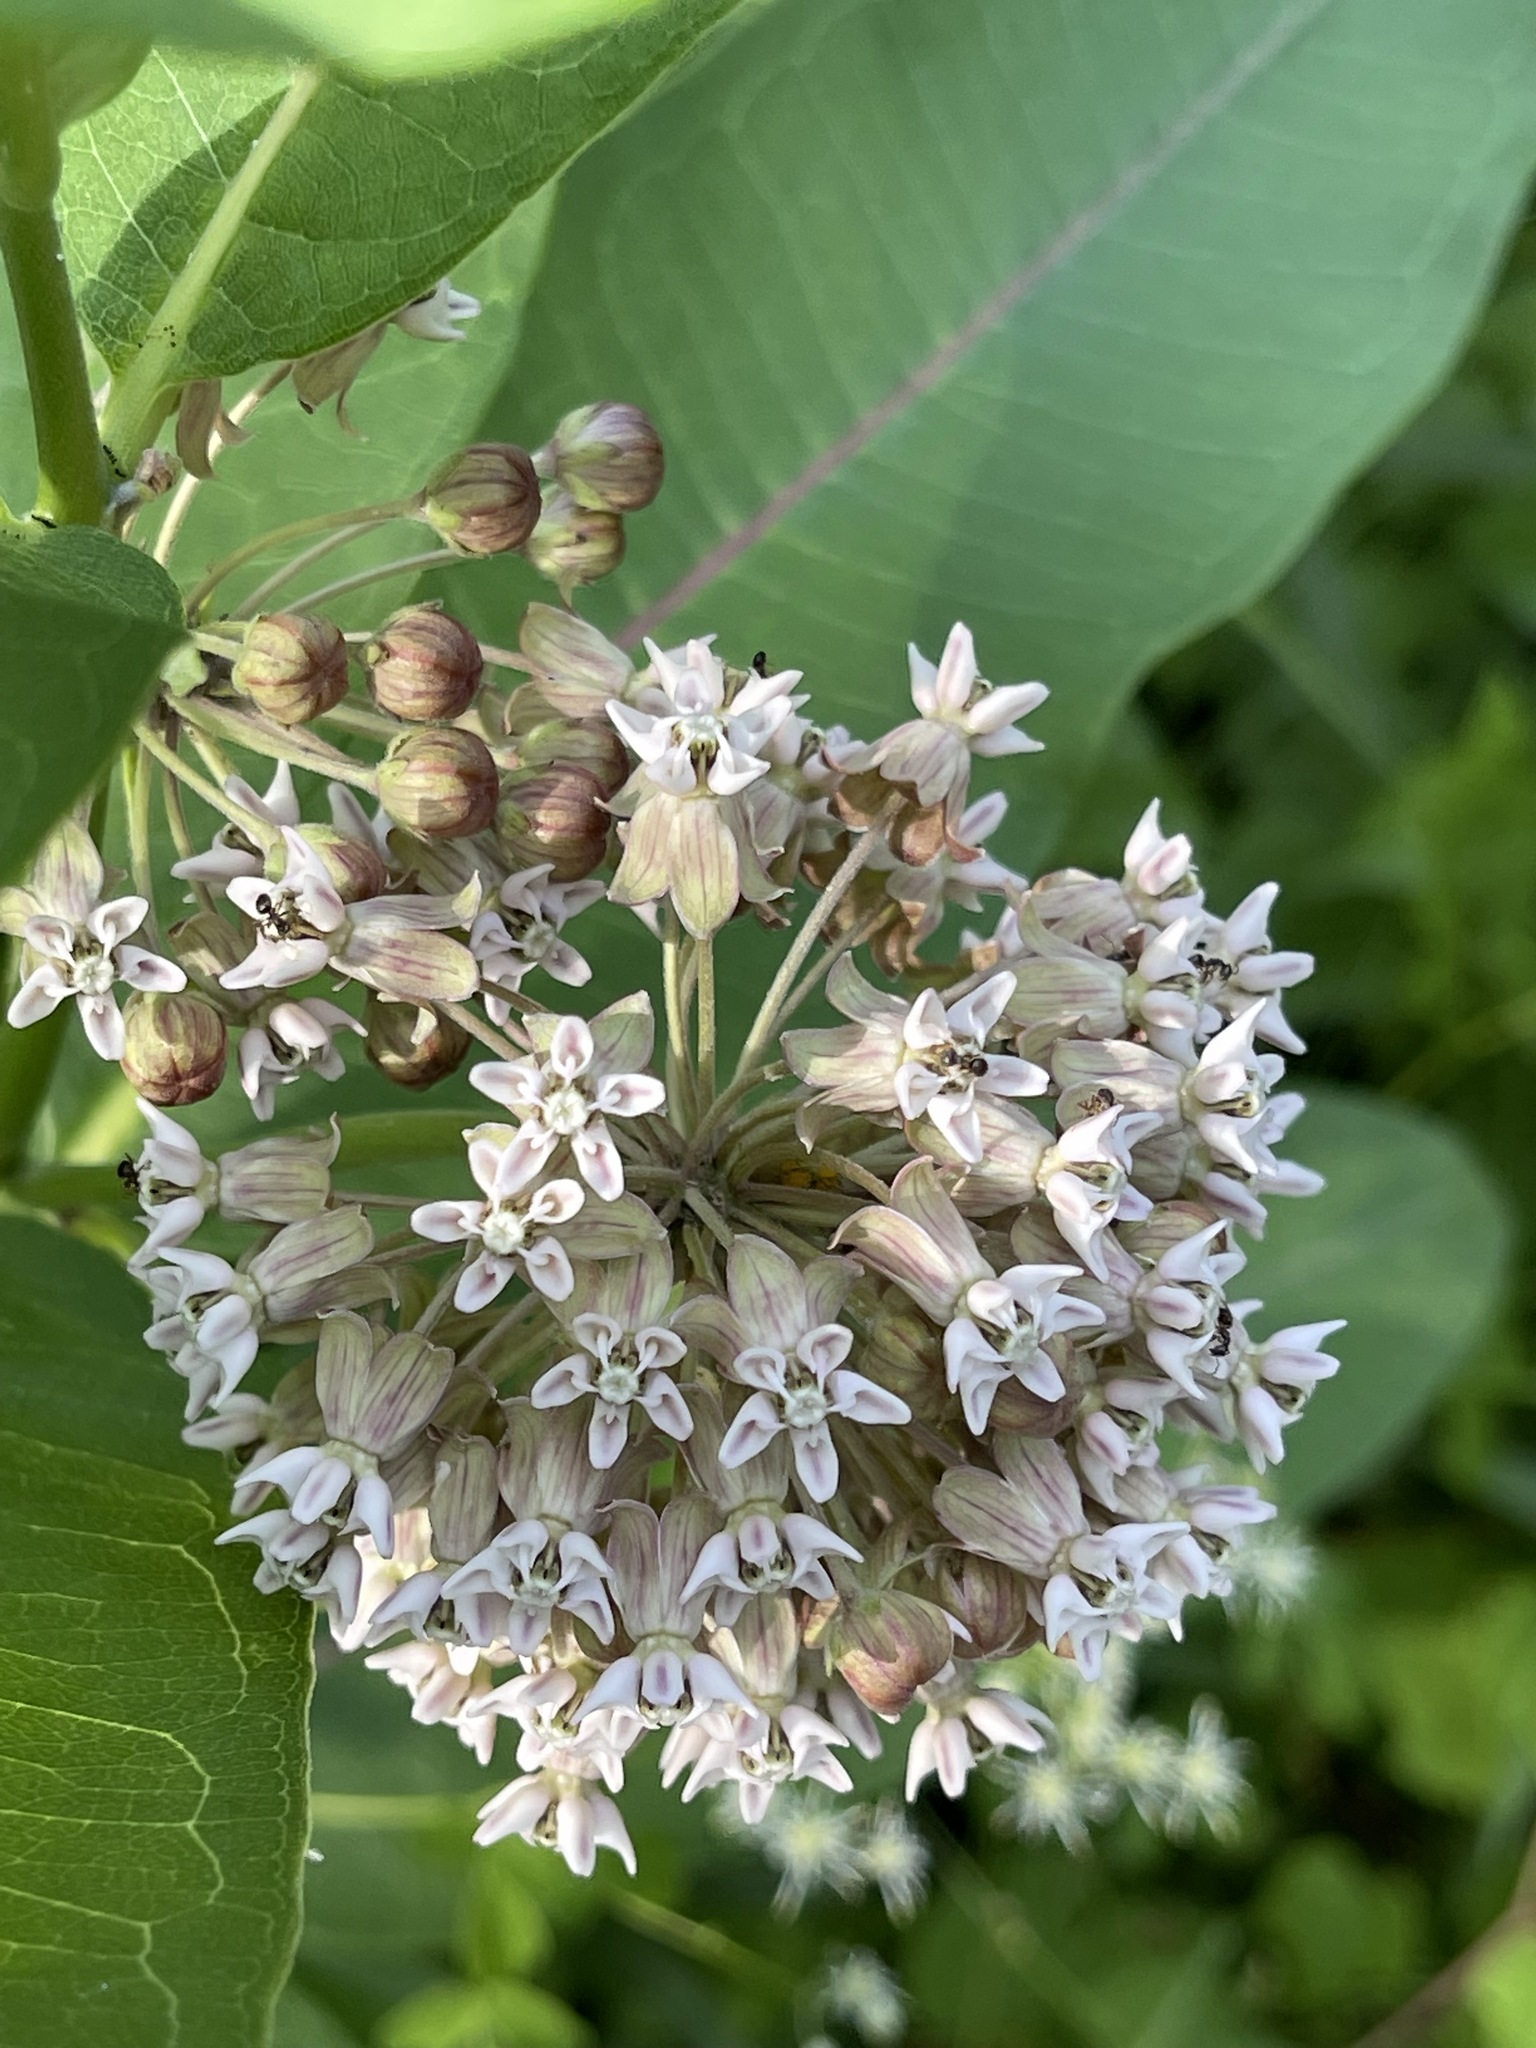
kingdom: Plantae
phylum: Tracheophyta
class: Magnoliopsida
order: Gentianales
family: Apocynaceae
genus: Asclepias
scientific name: Asclepias syriaca
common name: Common milkweed
